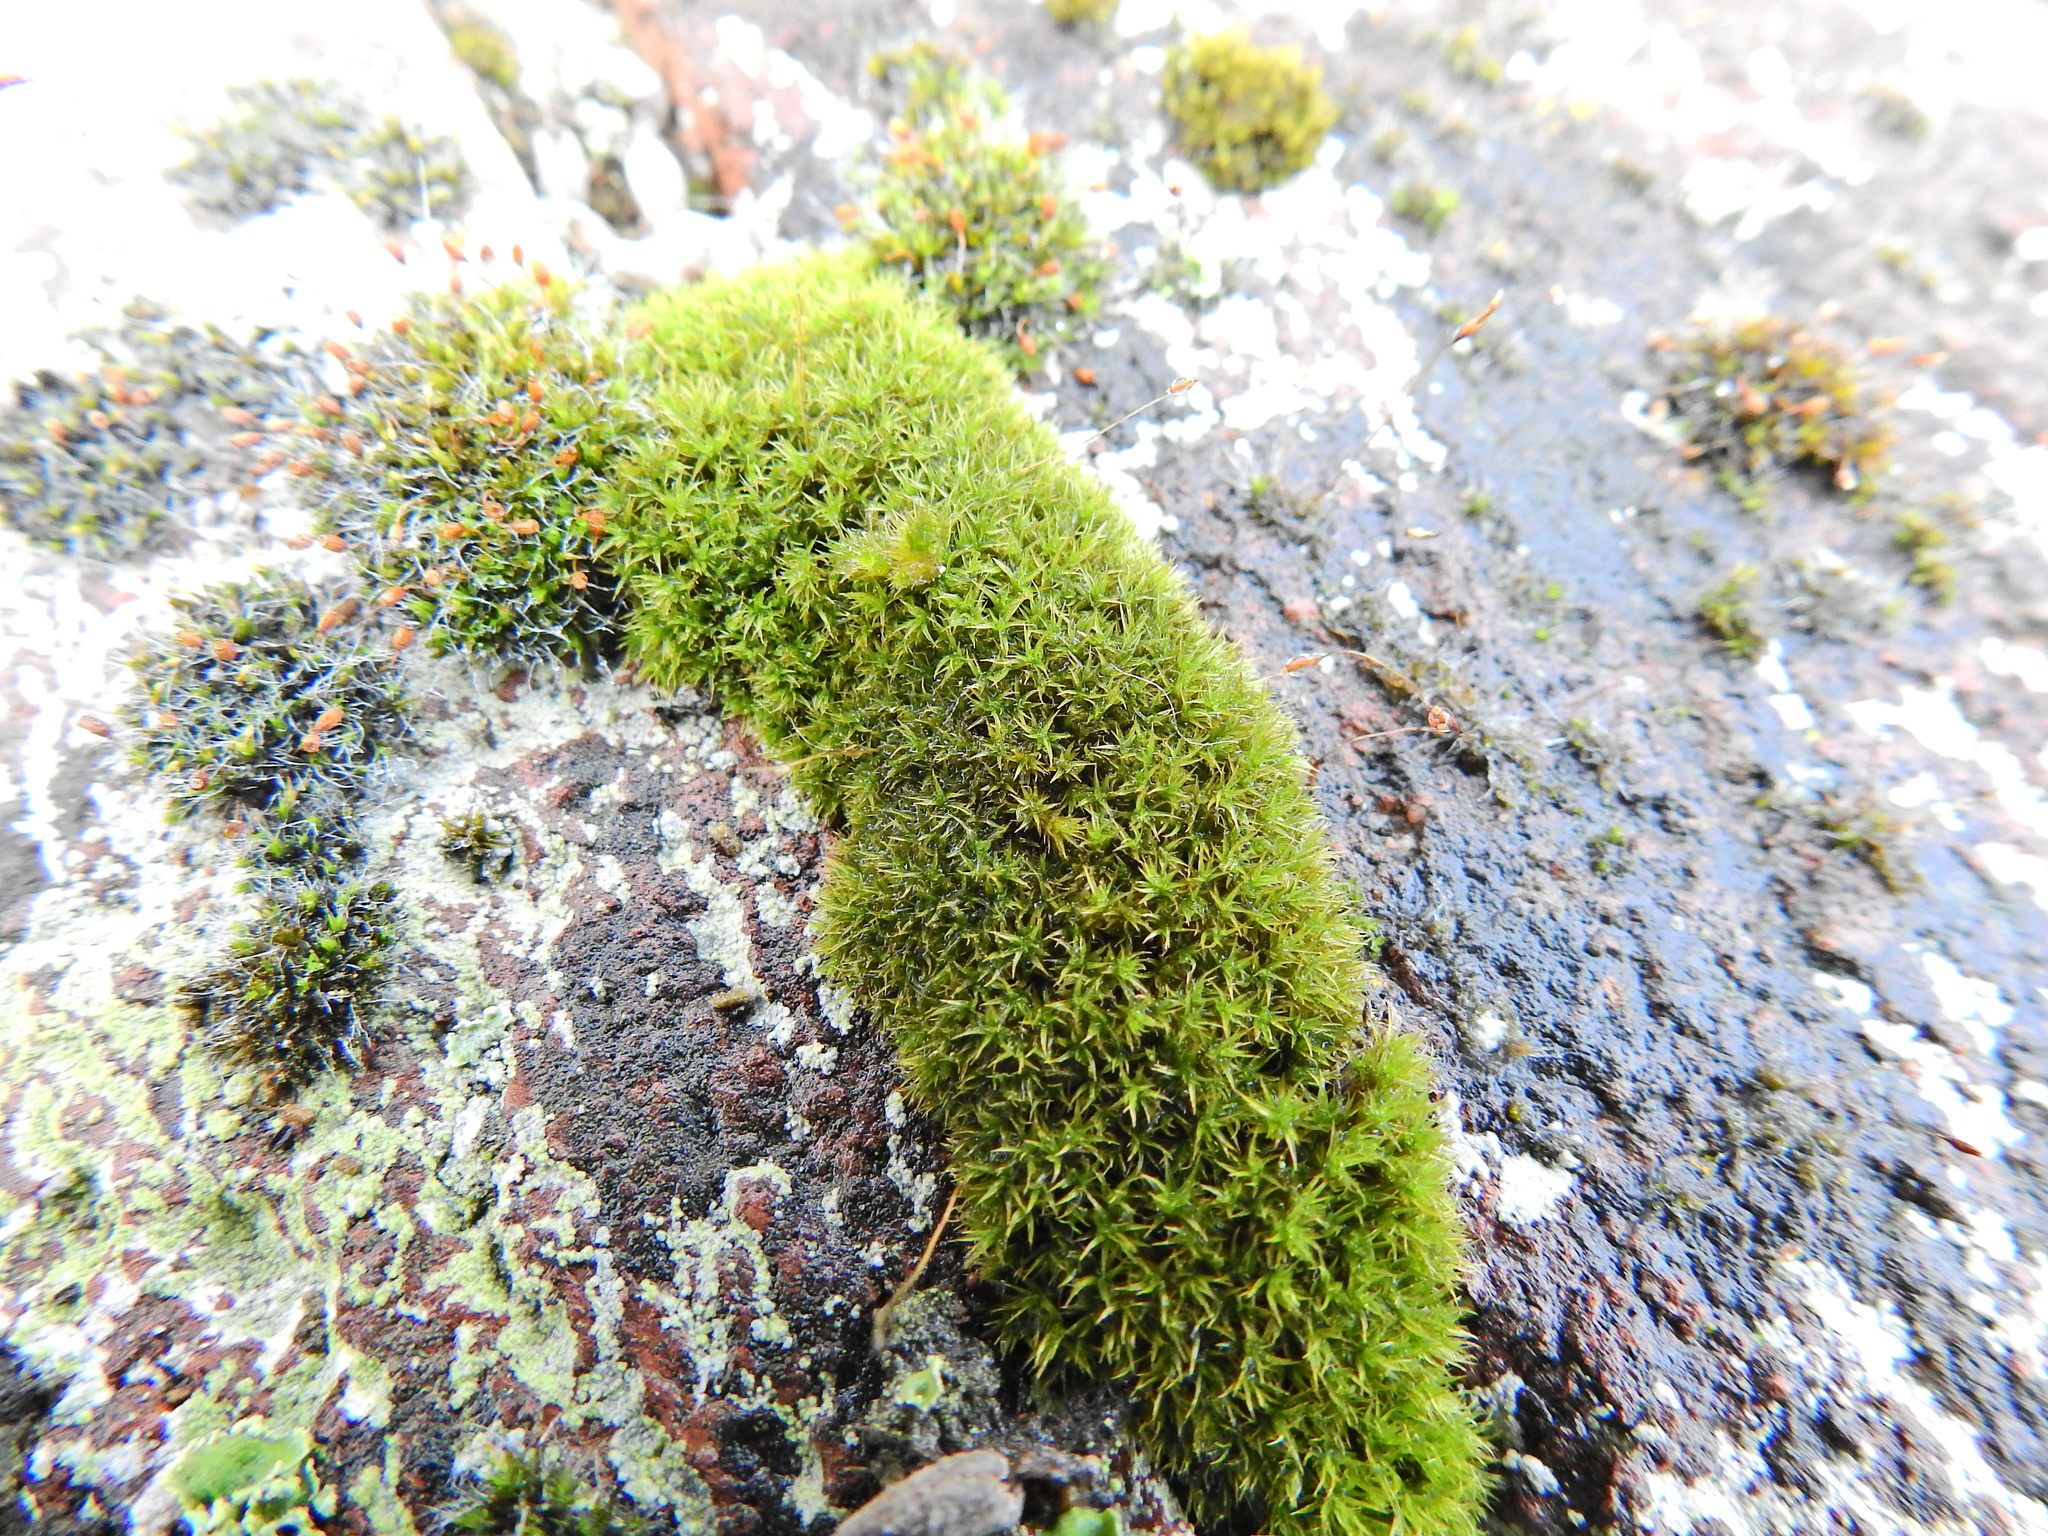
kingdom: Plantae
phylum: Bryophyta
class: Bryopsida
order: Pottiales
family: Pottiaceae
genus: Didymodon
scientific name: Didymodon rigidulus
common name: Rigid beard-moss
